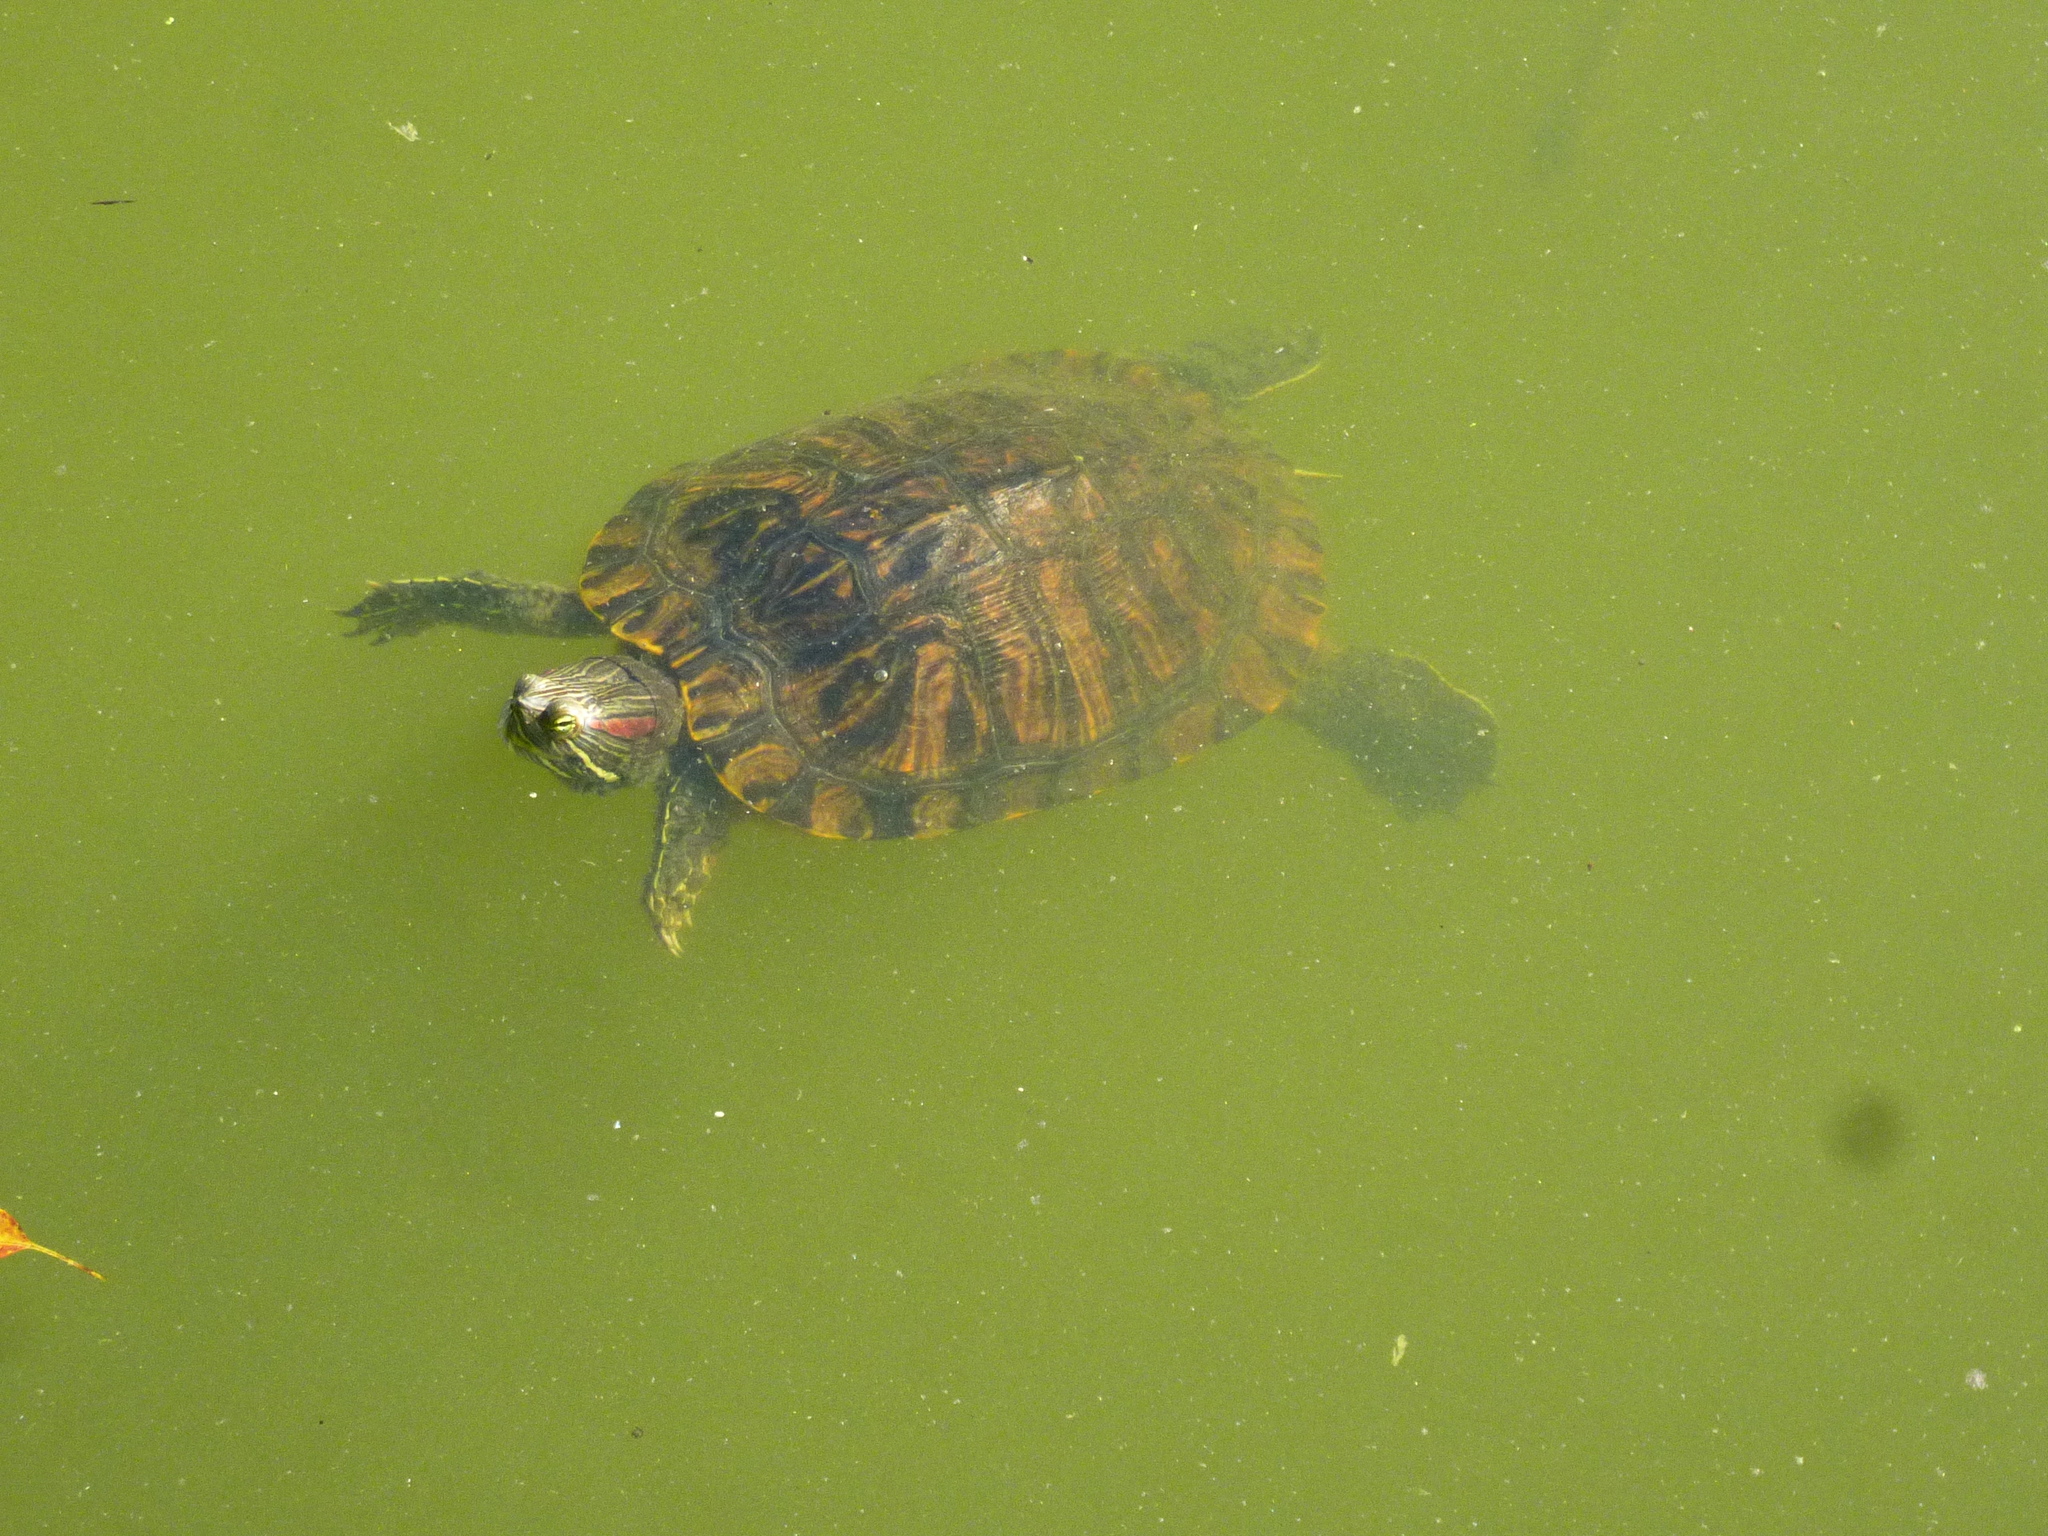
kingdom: Animalia
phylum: Chordata
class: Testudines
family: Emydidae
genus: Trachemys
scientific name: Trachemys scripta
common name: Slider
